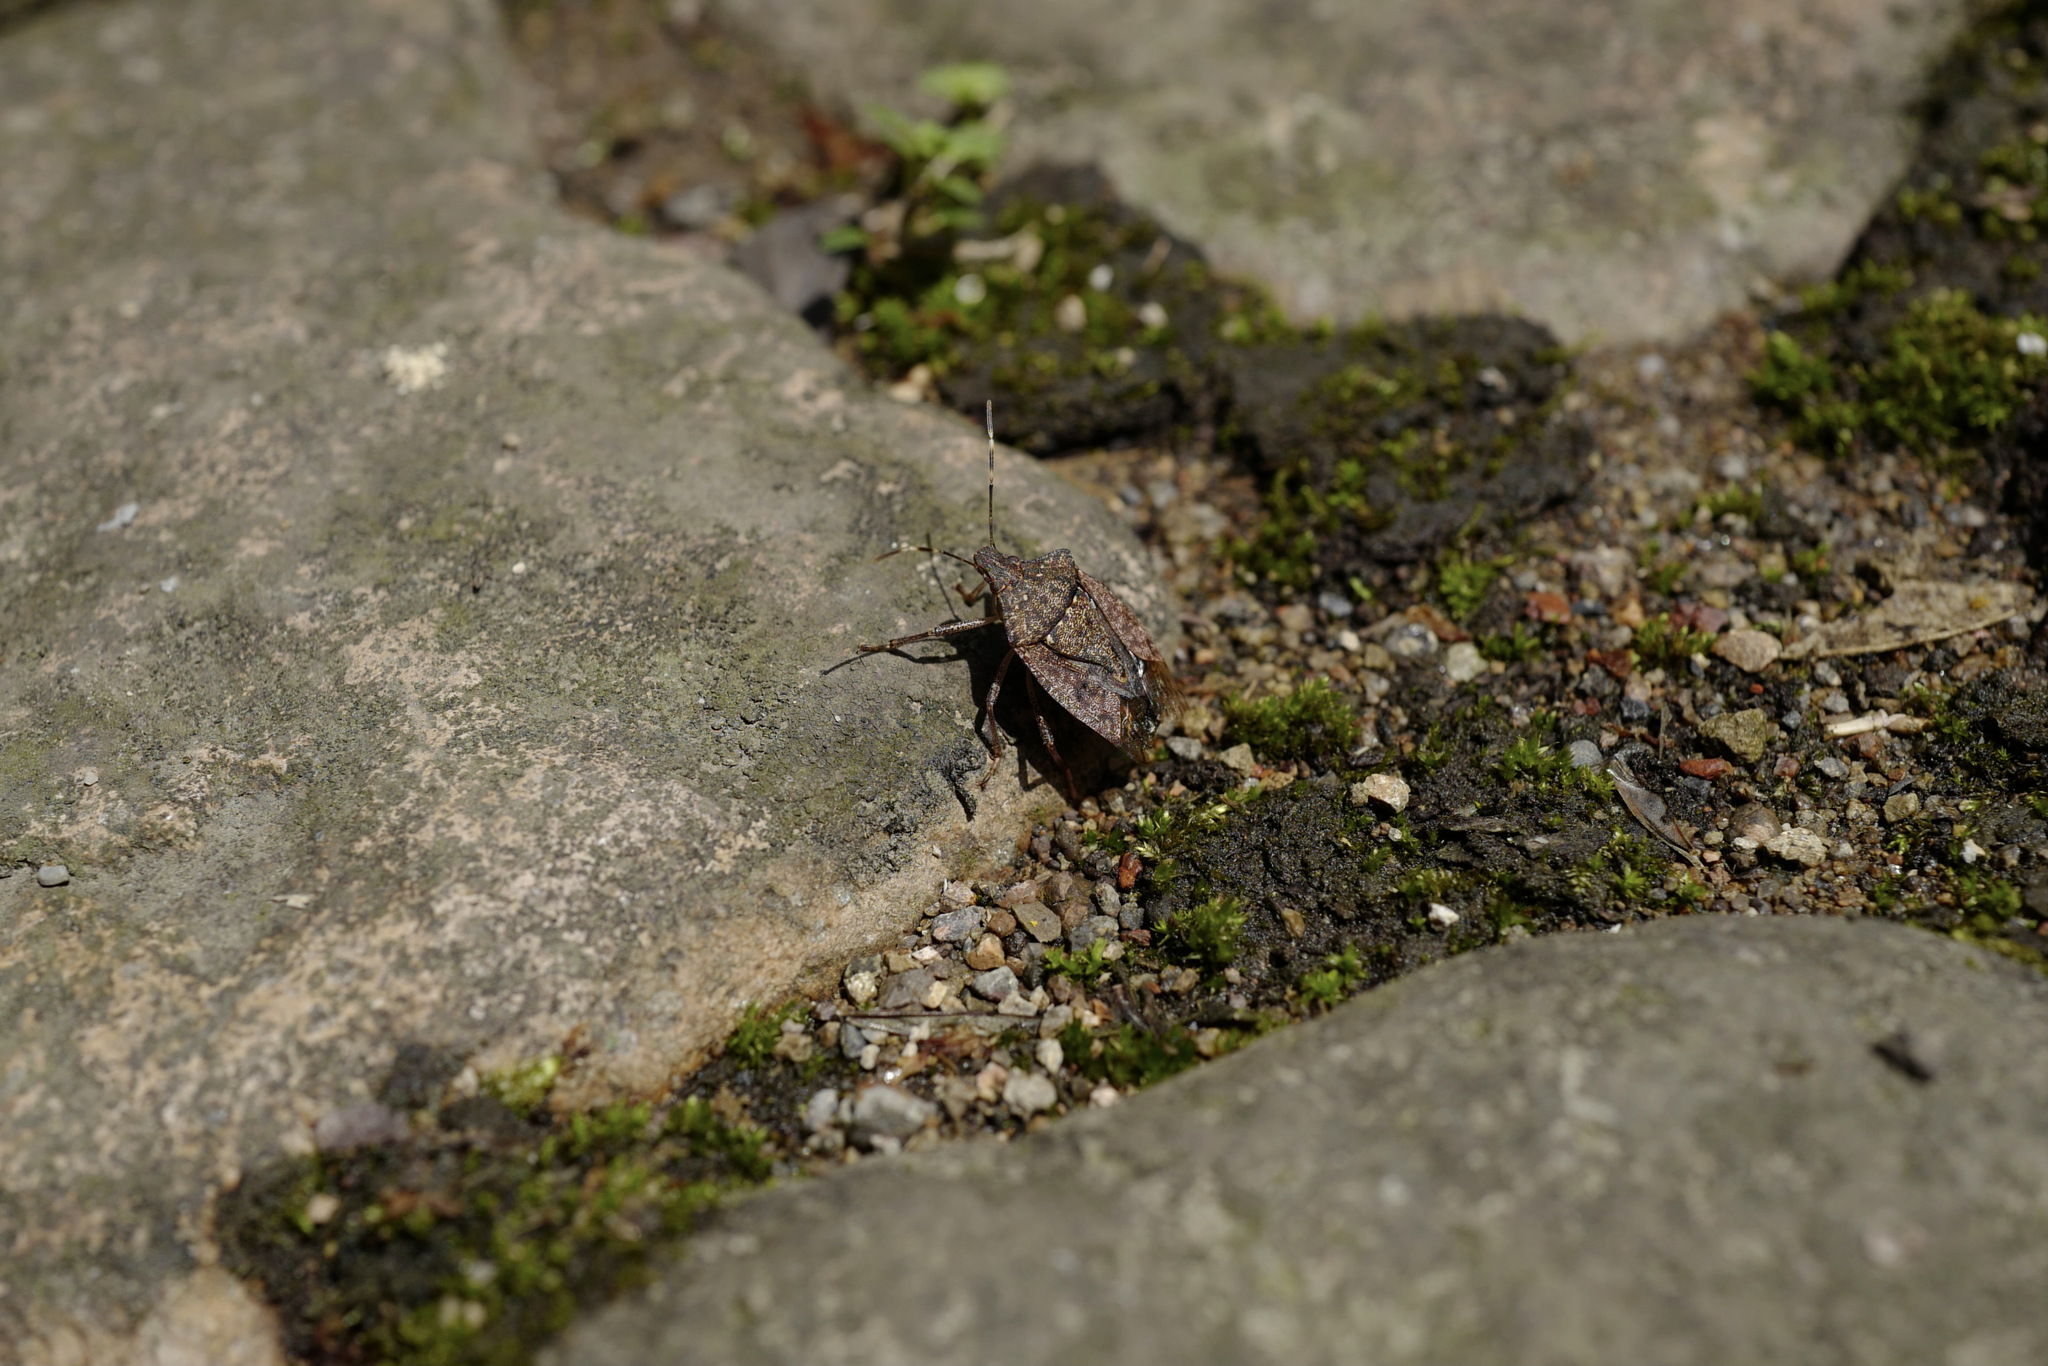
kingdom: Animalia
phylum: Arthropoda
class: Insecta
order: Hemiptera
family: Pentatomidae
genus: Halyomorpha
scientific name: Halyomorpha halys
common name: Brown marmorated stink bug
